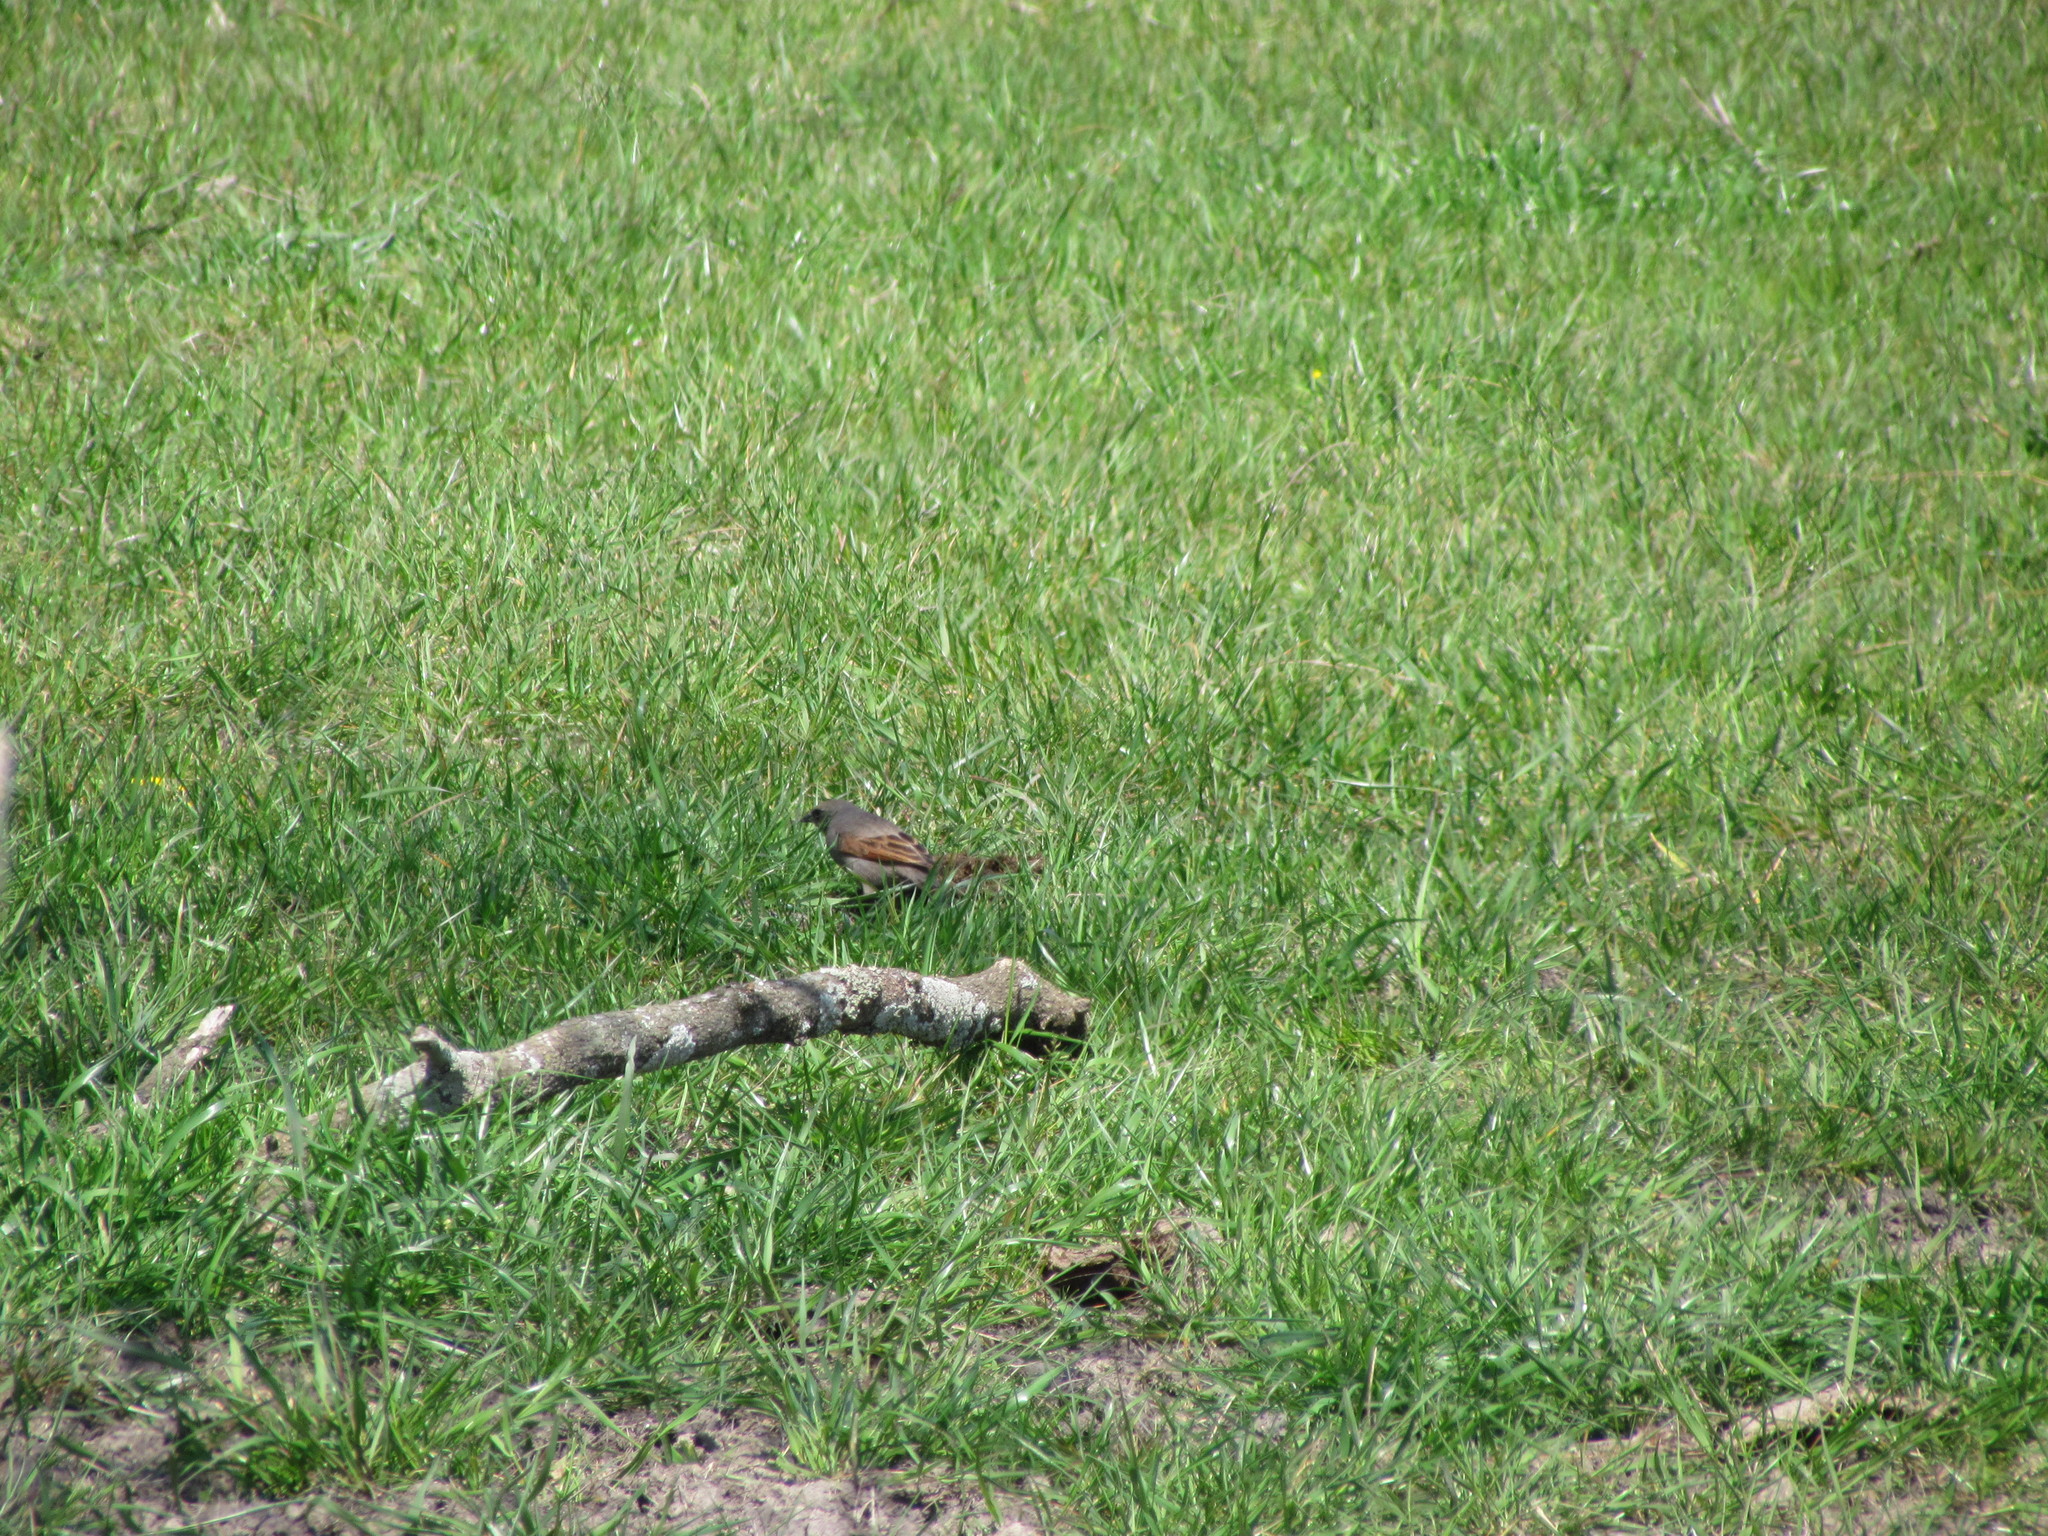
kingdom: Animalia
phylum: Chordata
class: Aves
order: Passeriformes
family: Icteridae
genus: Agelaioides
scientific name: Agelaioides badius
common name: Baywing
